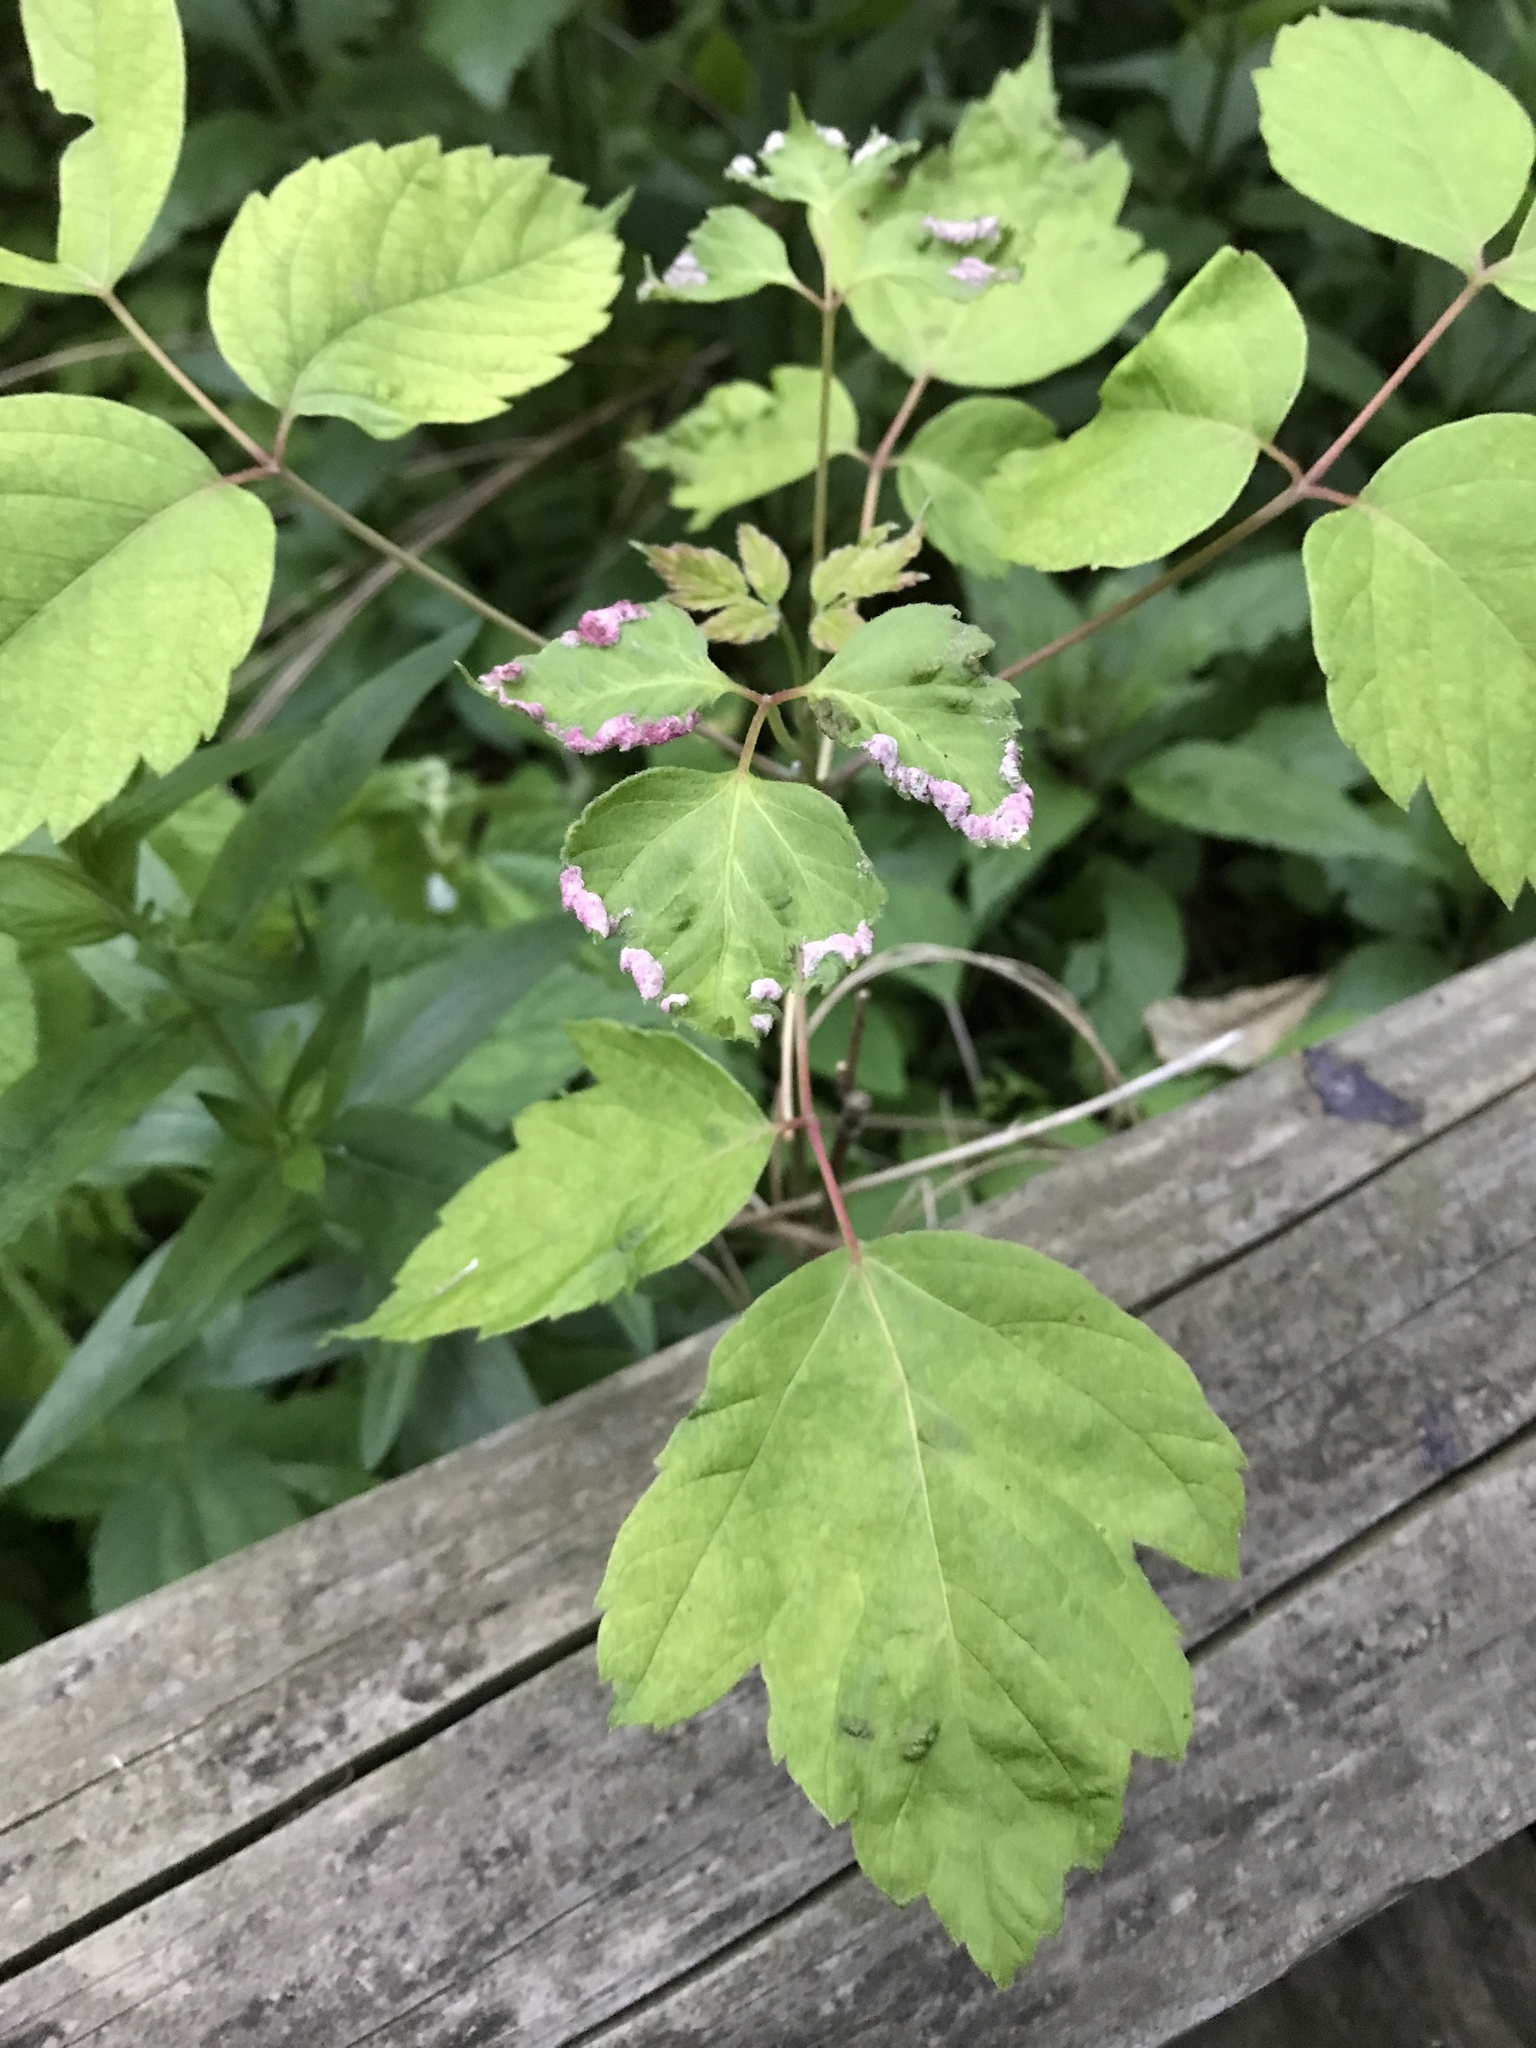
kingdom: Plantae
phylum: Tracheophyta
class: Magnoliopsida
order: Sapindales
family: Sapindaceae
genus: Acer
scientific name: Acer negundo
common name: Ashleaf maple
